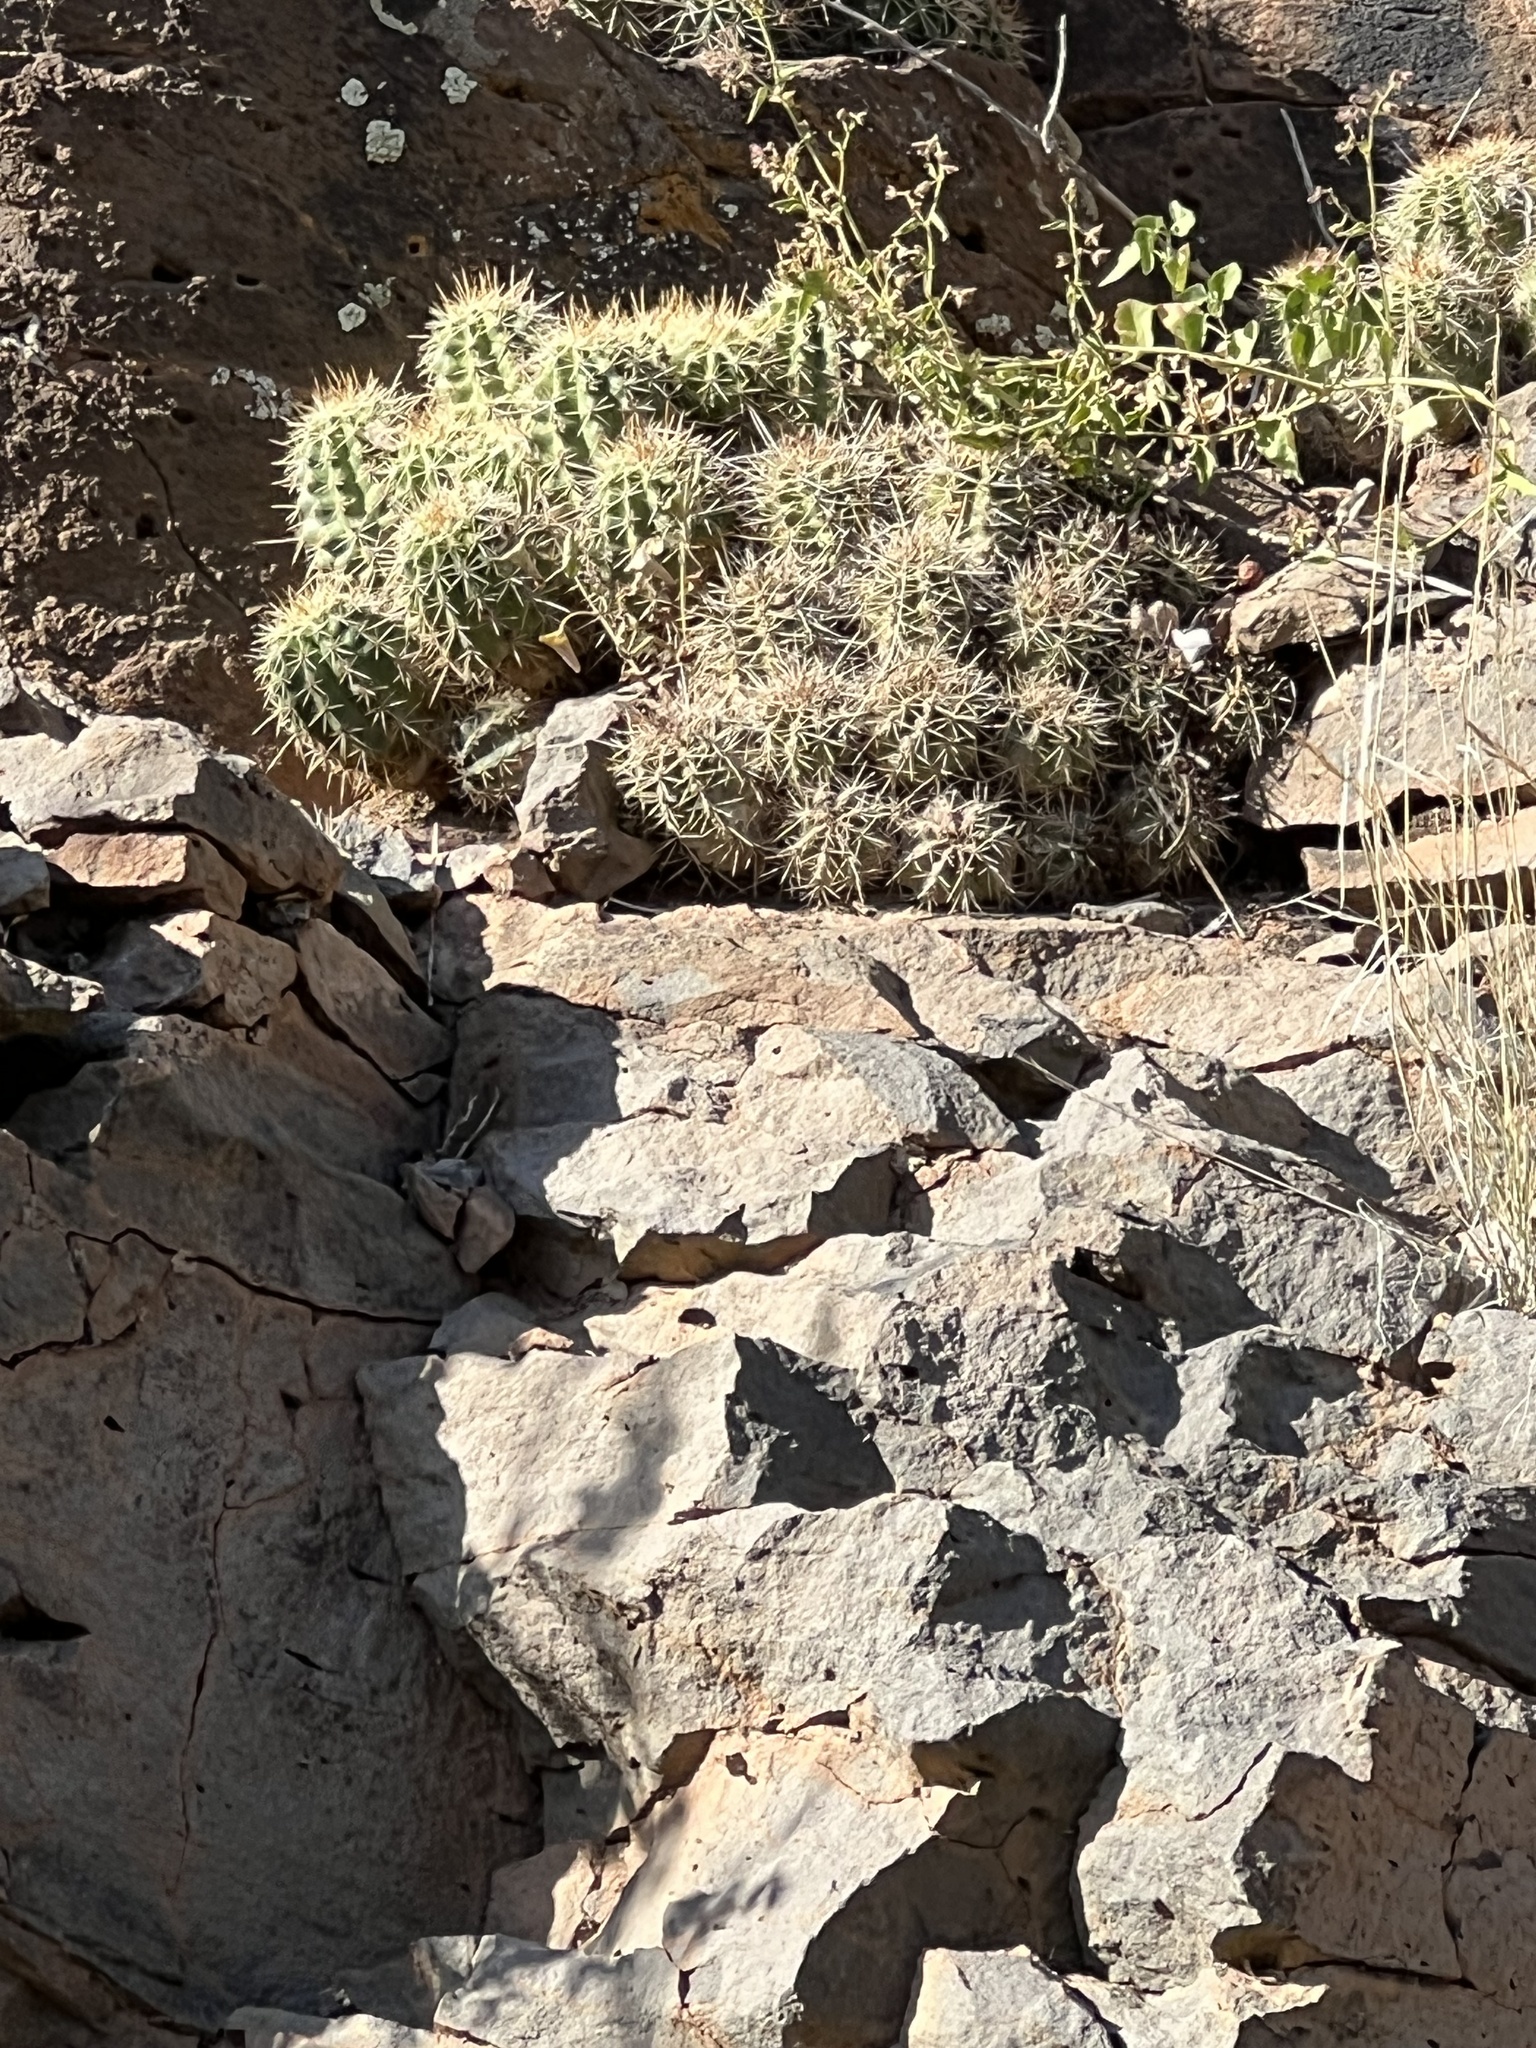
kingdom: Plantae
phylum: Tracheophyta
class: Magnoliopsida
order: Caryophyllales
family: Cactaceae
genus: Echinocereus
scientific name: Echinocereus bakeri
